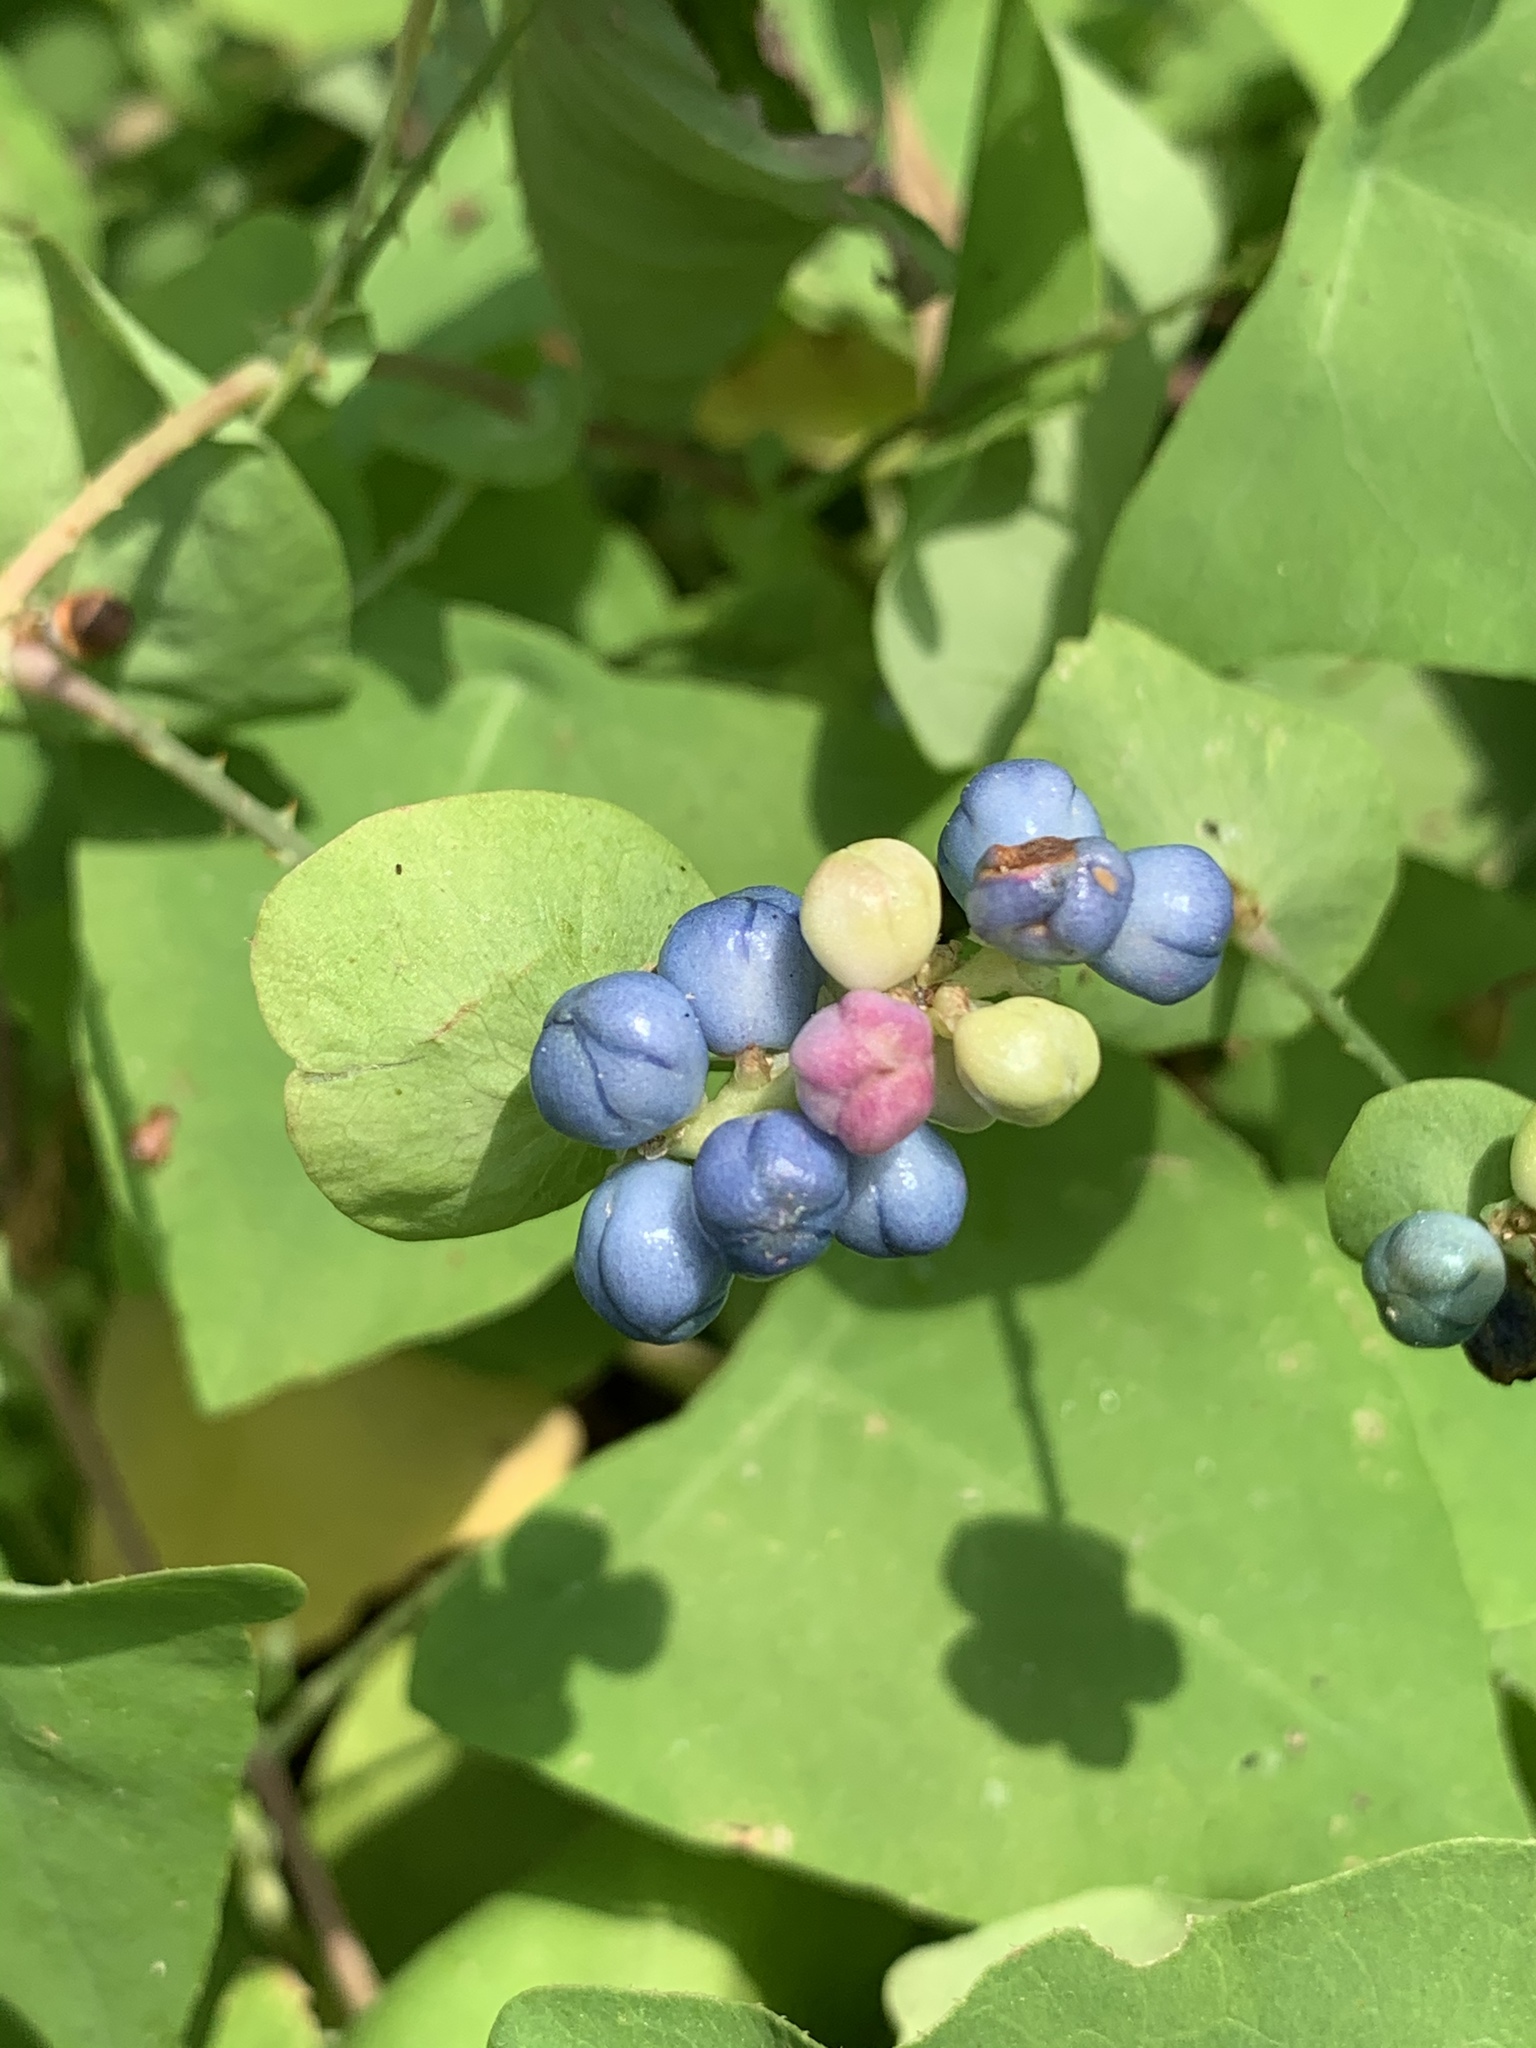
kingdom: Plantae
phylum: Tracheophyta
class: Magnoliopsida
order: Caryophyllales
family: Polygonaceae
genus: Persicaria
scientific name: Persicaria perfoliata
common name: Asiatic tearthumb
